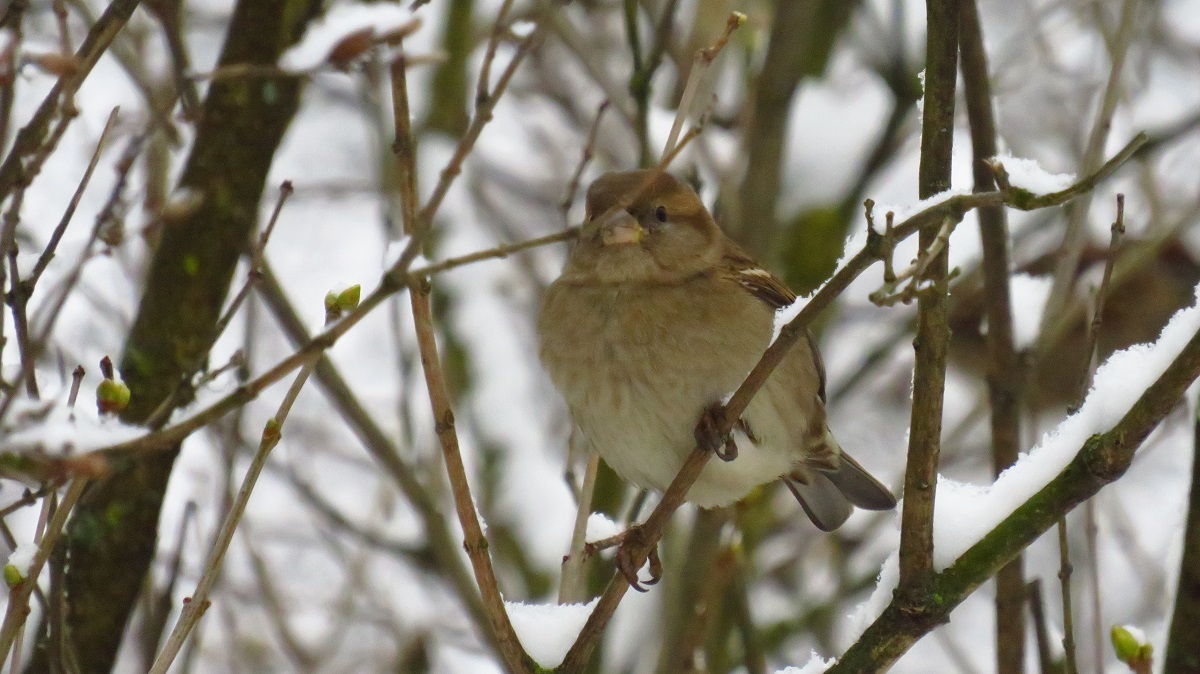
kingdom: Animalia
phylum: Chordata
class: Aves
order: Passeriformes
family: Passeridae
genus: Passer
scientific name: Passer domesticus
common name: House sparrow
